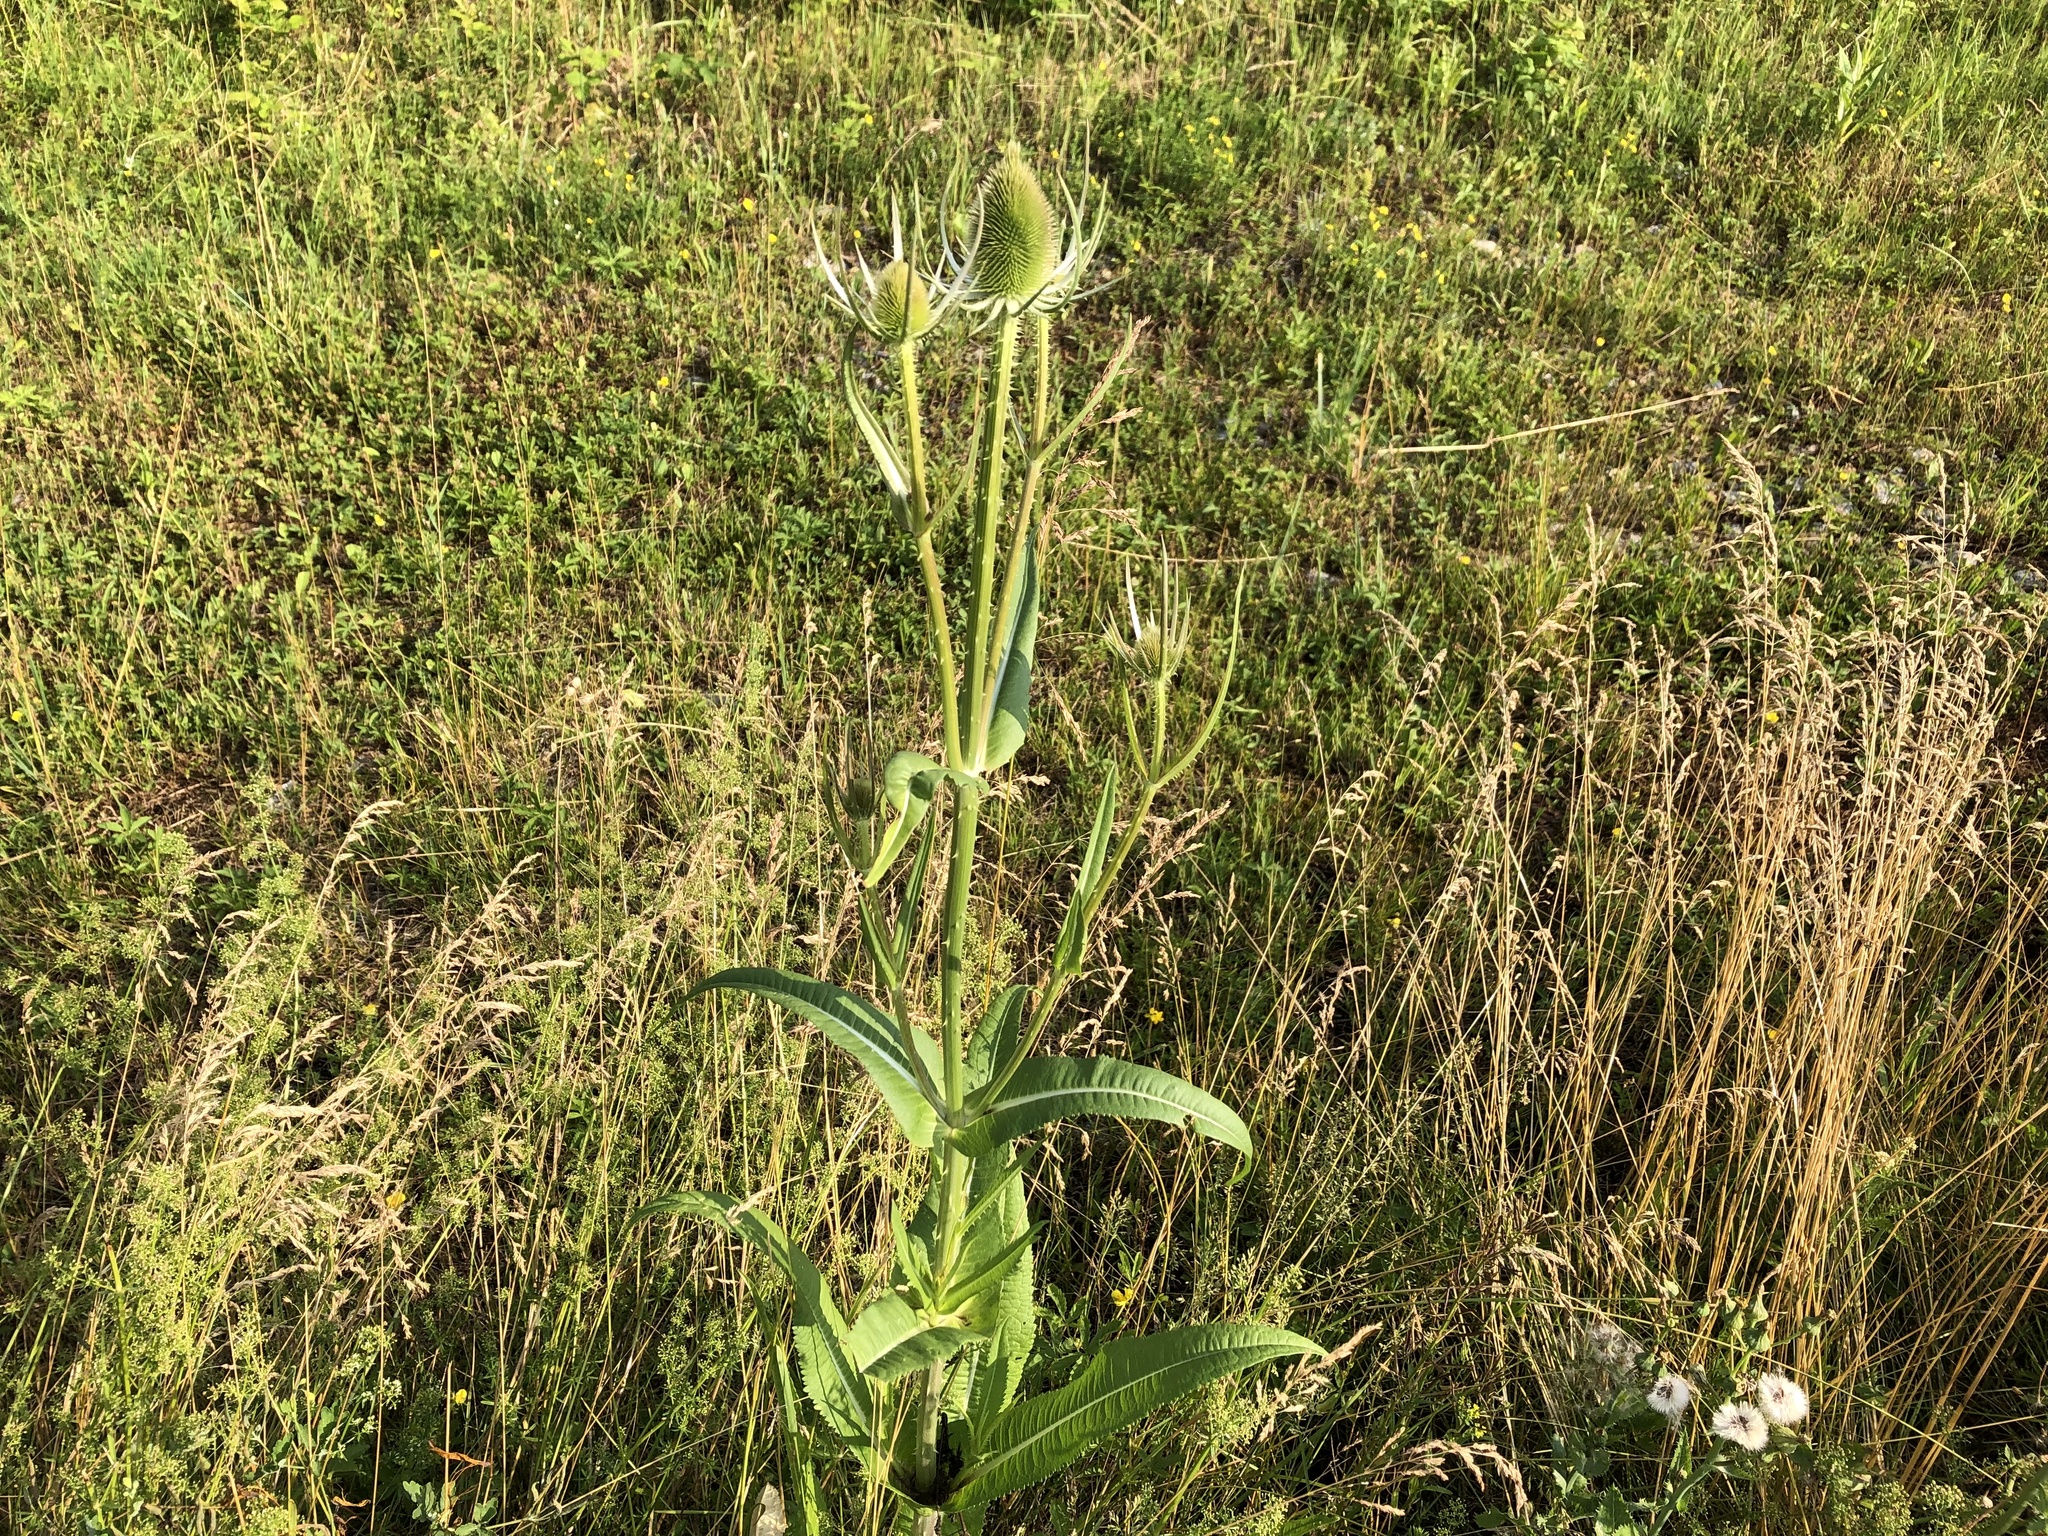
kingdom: Plantae
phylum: Tracheophyta
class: Magnoliopsida
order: Dipsacales
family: Caprifoliaceae
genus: Dipsacus
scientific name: Dipsacus fullonum
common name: Teasel
